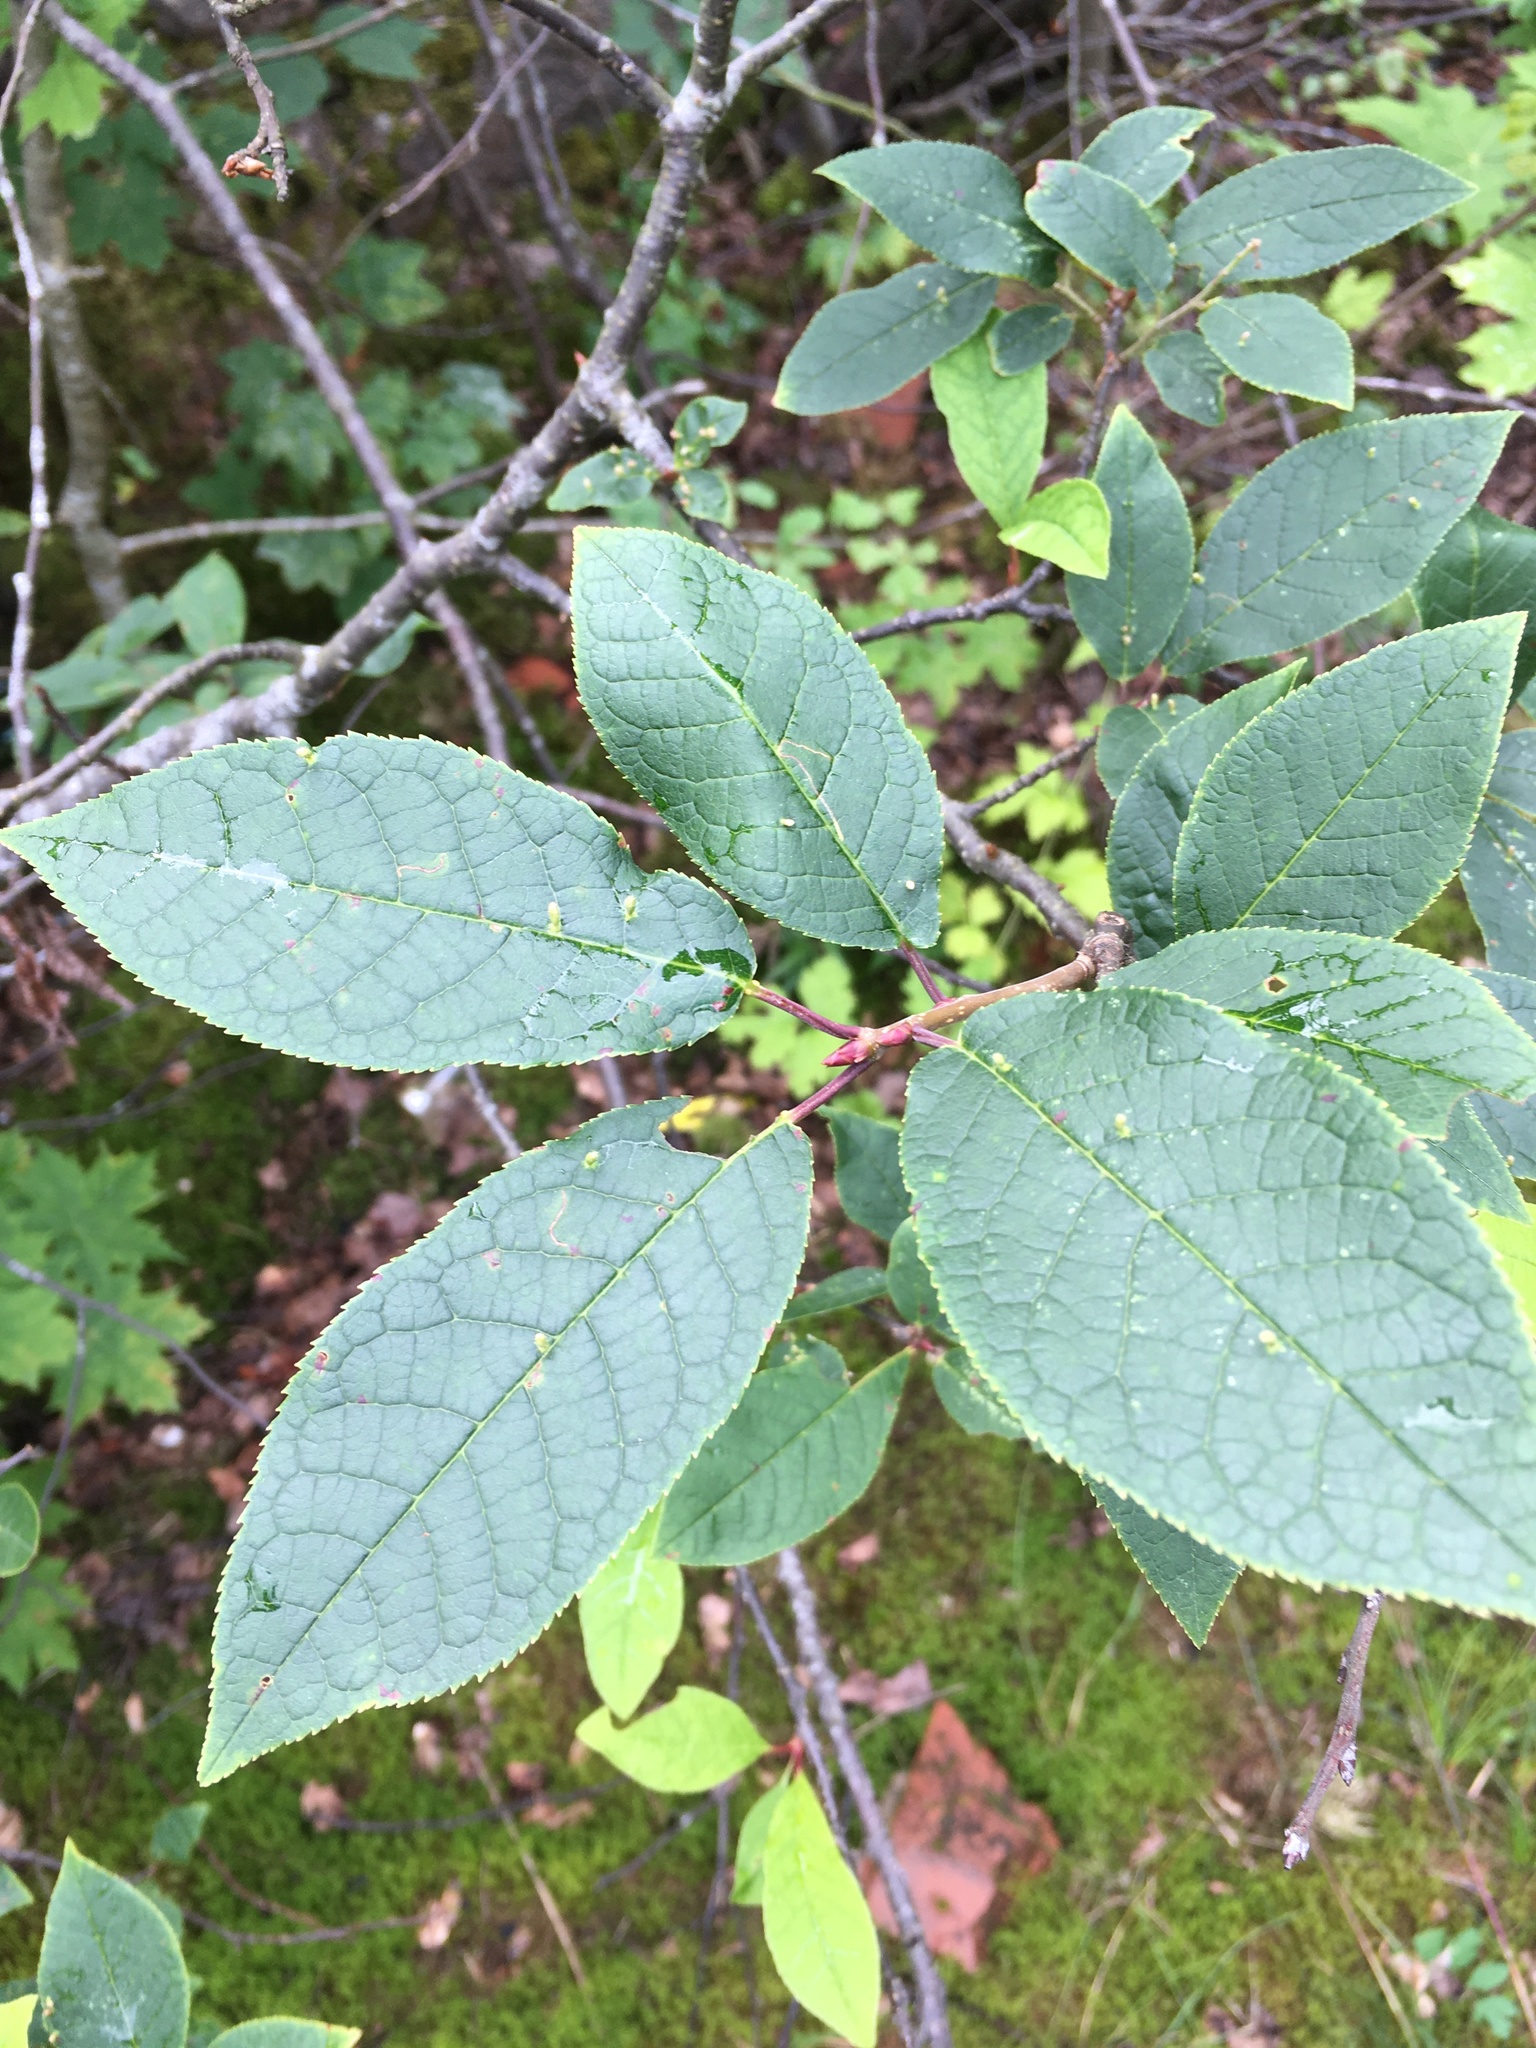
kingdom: Plantae
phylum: Tracheophyta
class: Magnoliopsida
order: Rosales
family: Rosaceae
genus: Prunus
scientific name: Prunus padus
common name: Bird cherry
